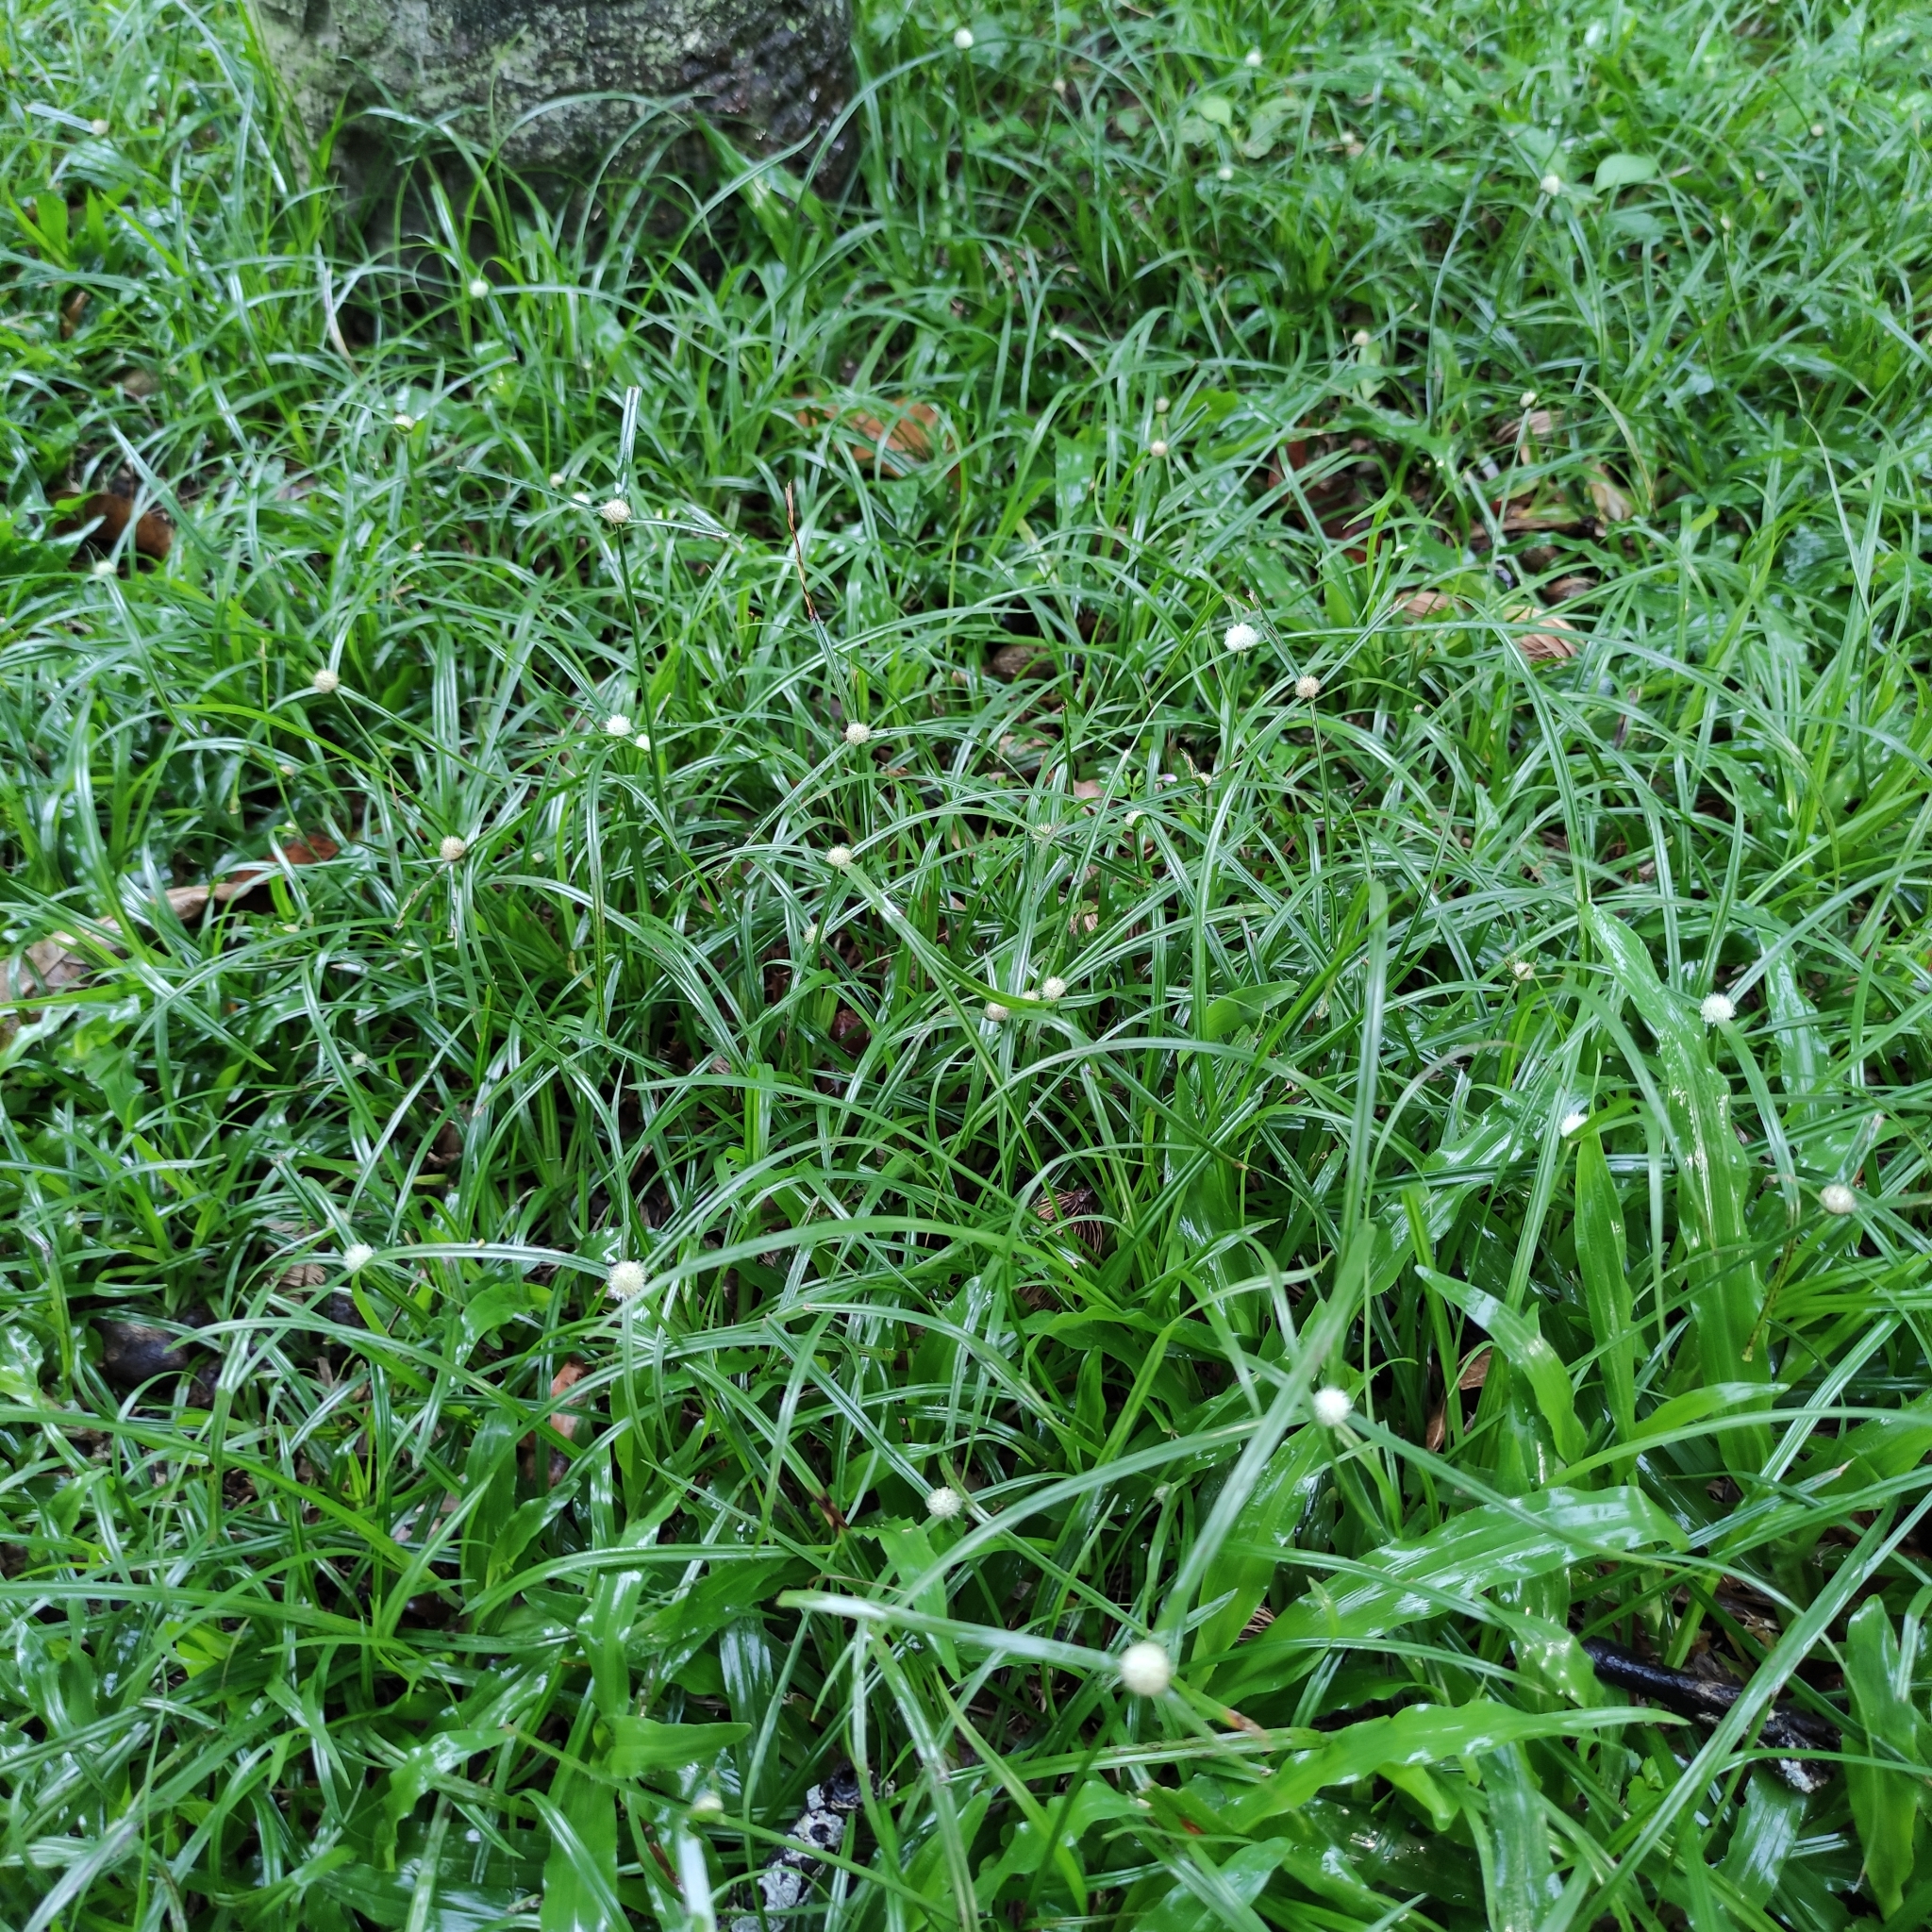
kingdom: Plantae
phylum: Tracheophyta
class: Liliopsida
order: Poales
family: Cyperaceae
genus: Cyperus
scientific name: Cyperus mindorensis
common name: Flatsedge
